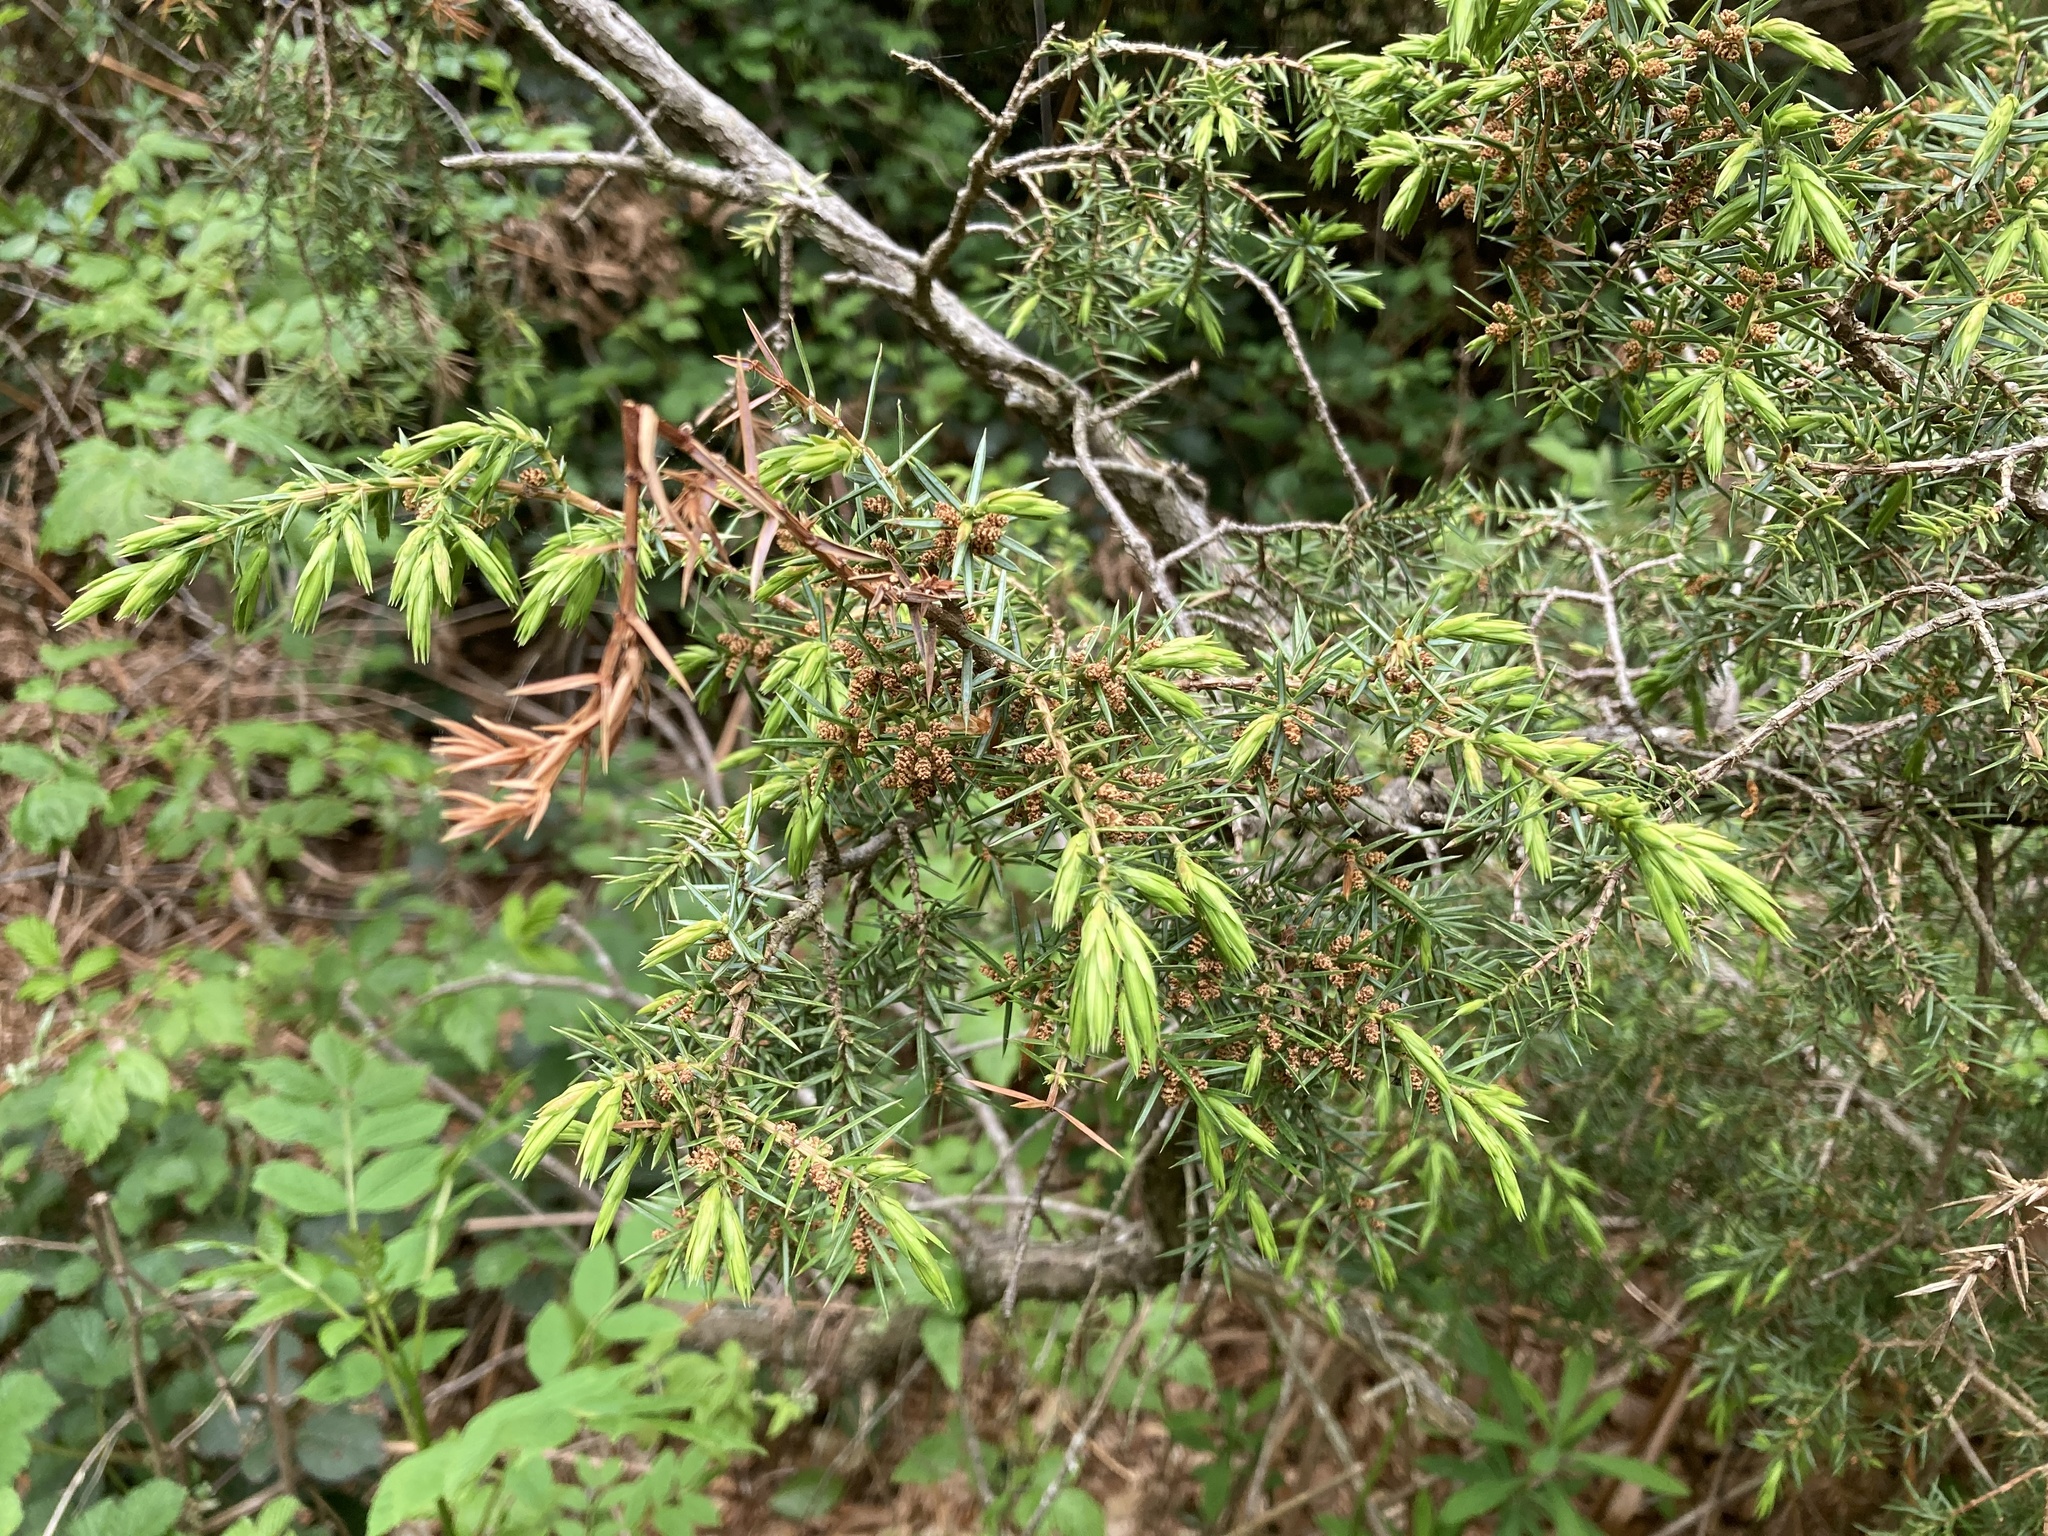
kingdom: Plantae
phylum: Tracheophyta
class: Pinopsida
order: Pinales
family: Cupressaceae
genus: Juniperus
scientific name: Juniperus communis
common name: Common juniper
